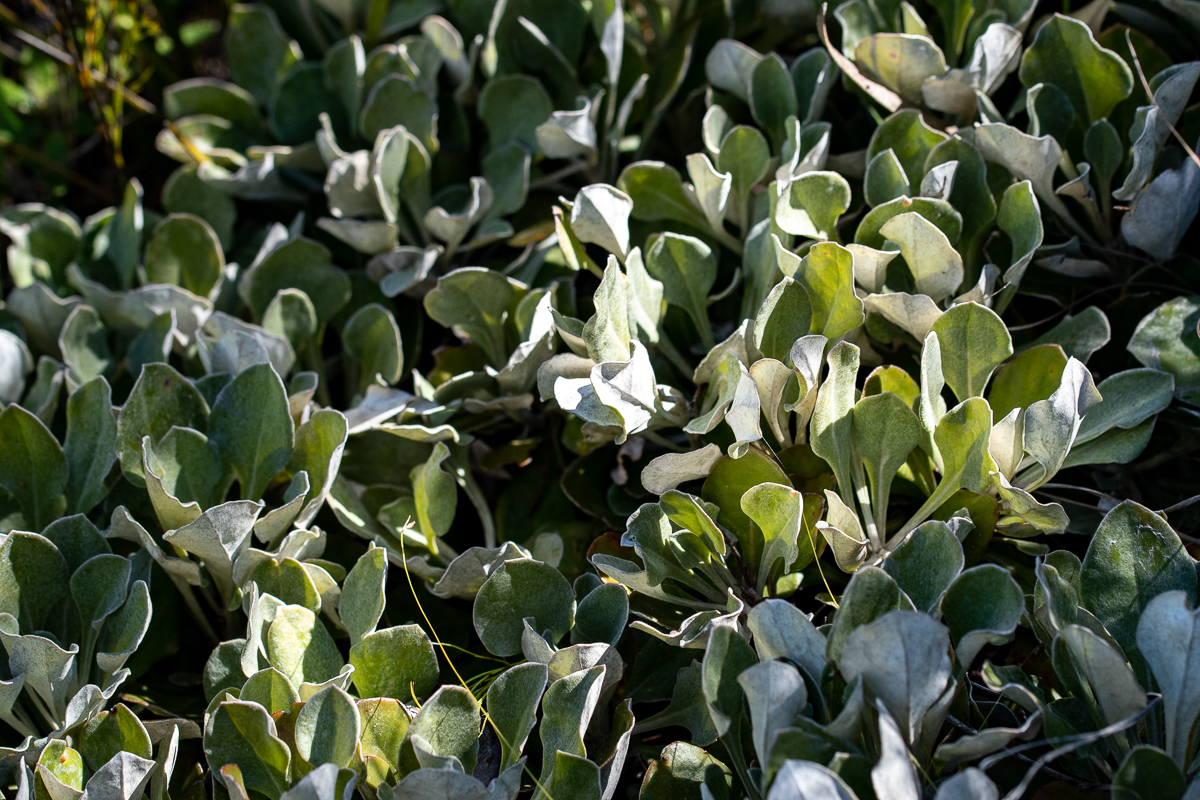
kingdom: Plantae
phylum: Tracheophyta
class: Magnoliopsida
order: Asterales
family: Asteraceae
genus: Osteospermum
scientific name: Osteospermum tomentosum
